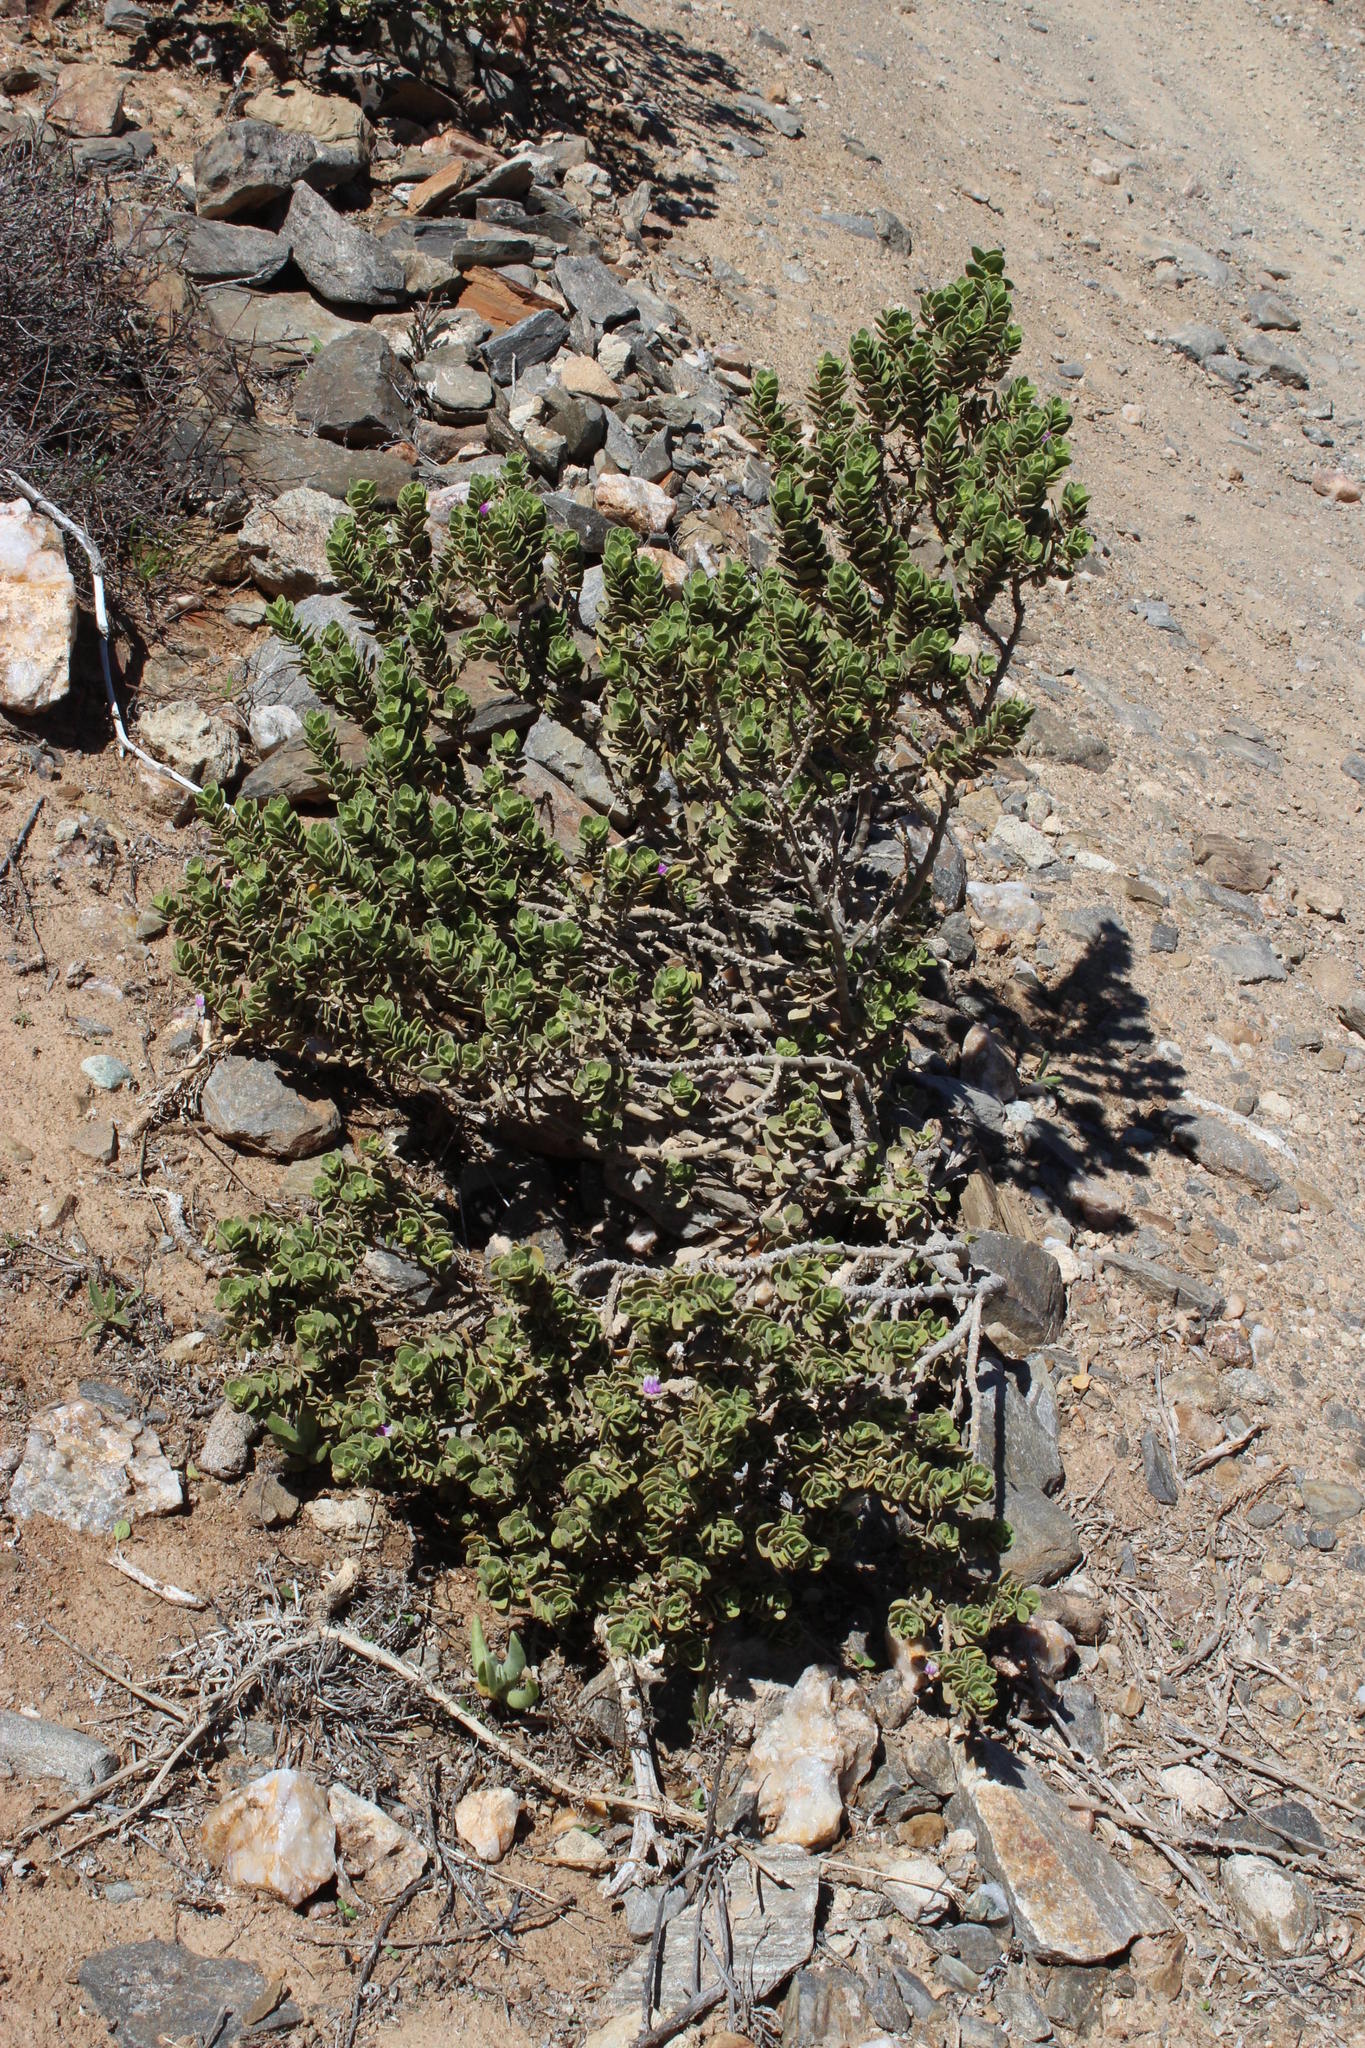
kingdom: Plantae
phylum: Tracheophyta
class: Magnoliopsida
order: Lamiales
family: Acanthaceae
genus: Pogonospermum
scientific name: Pogonospermum
